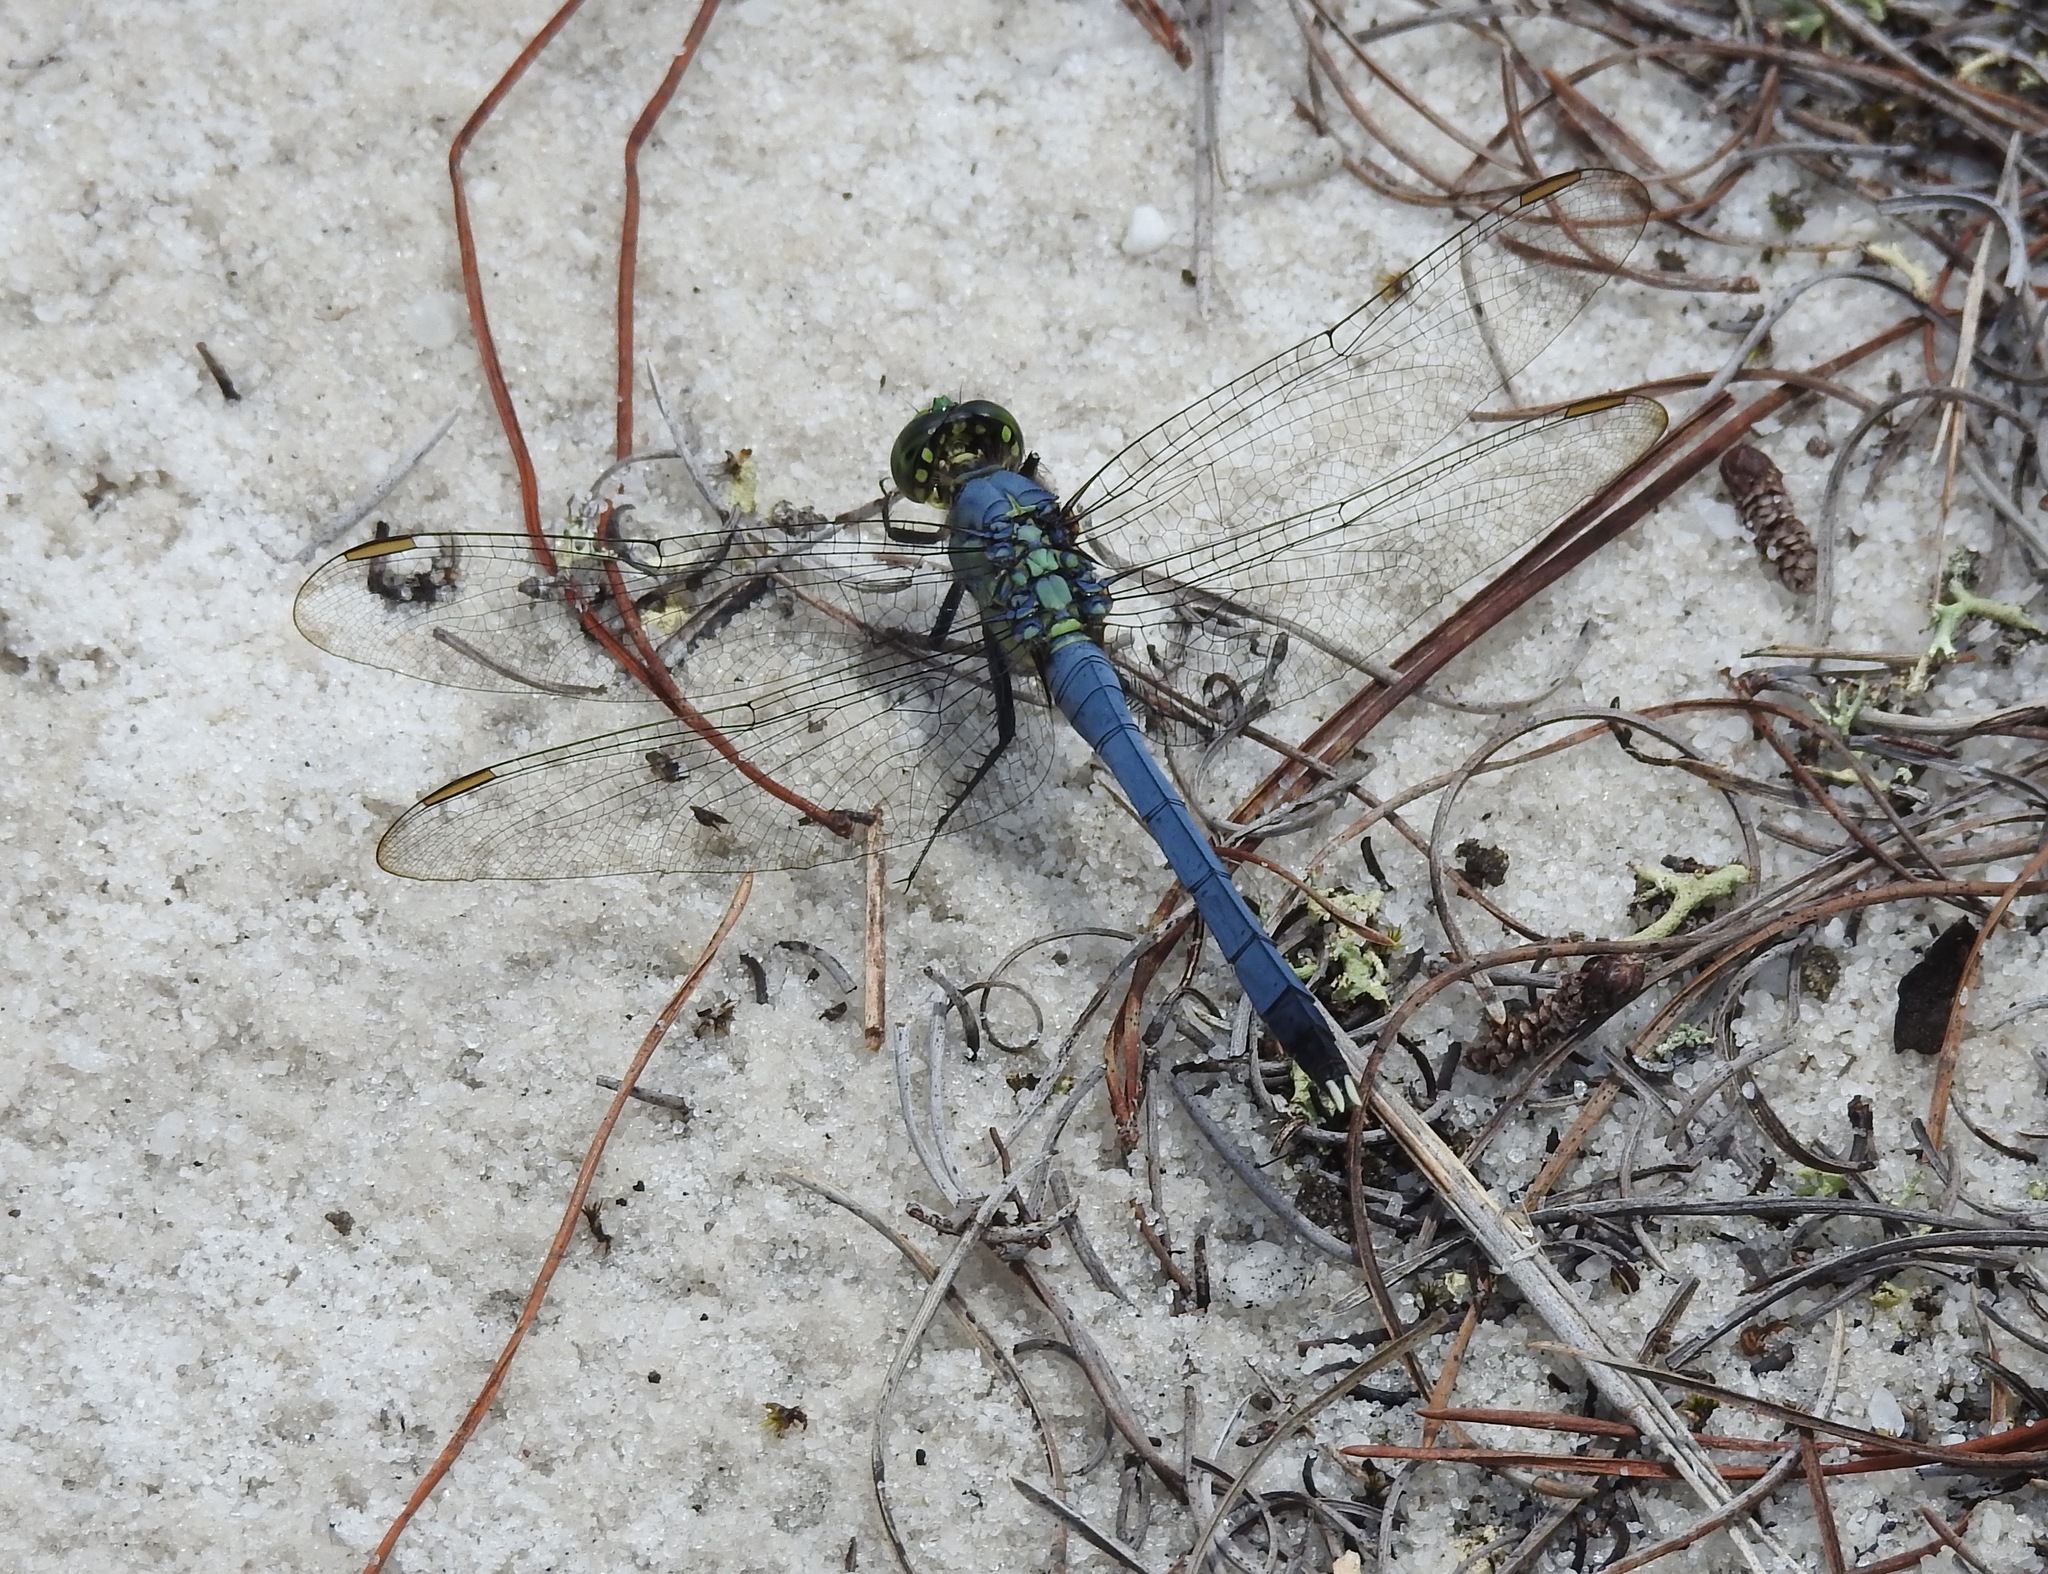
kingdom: Animalia
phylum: Arthropoda
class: Insecta
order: Odonata
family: Libellulidae
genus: Erythemis
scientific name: Erythemis simplicicollis
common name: Eastern pondhawk
